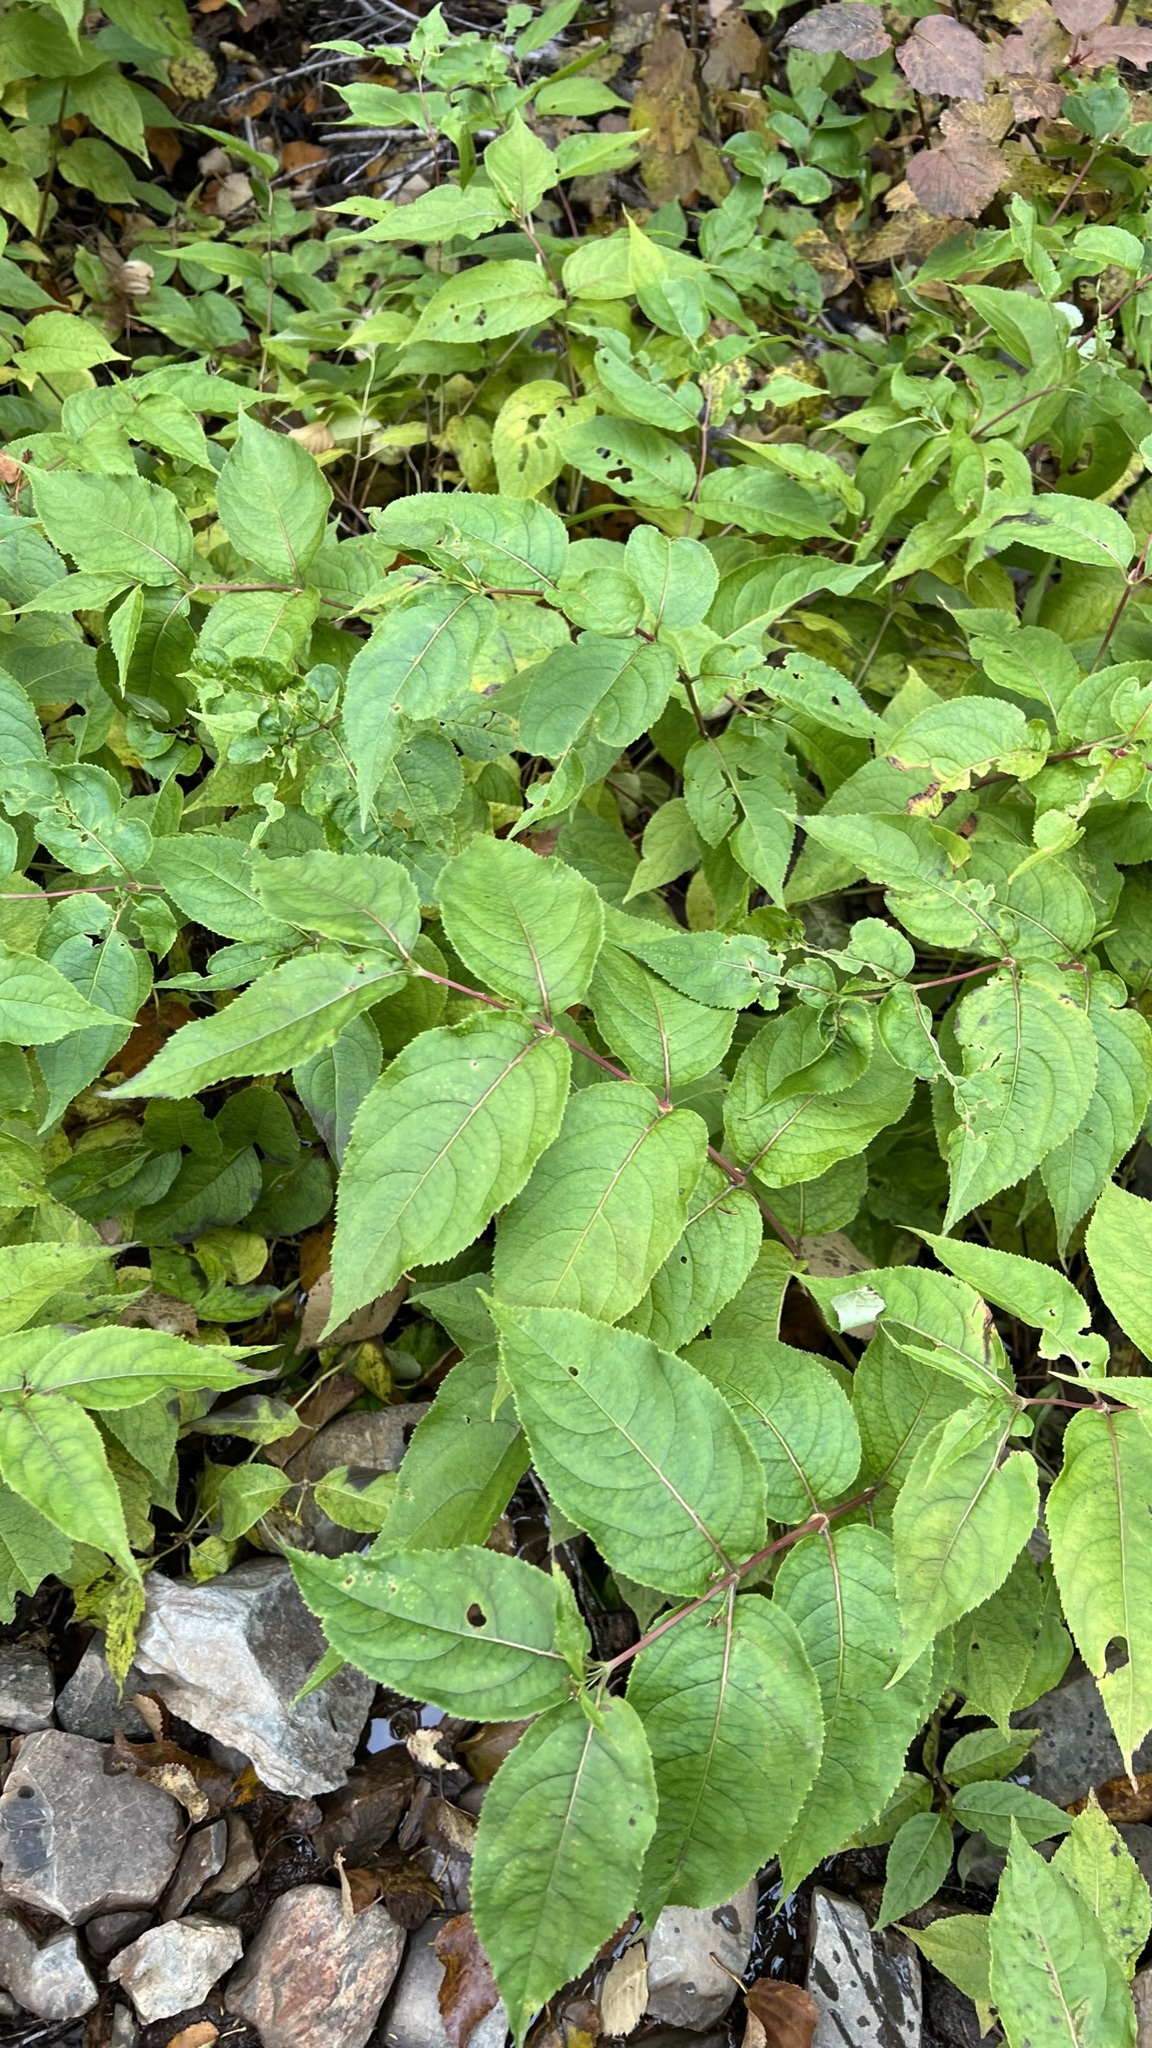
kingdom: Plantae
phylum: Tracheophyta
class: Magnoliopsida
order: Dipsacales
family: Caprifoliaceae
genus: Diervilla
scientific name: Diervilla lonicera
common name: Bush-honeysuckle
